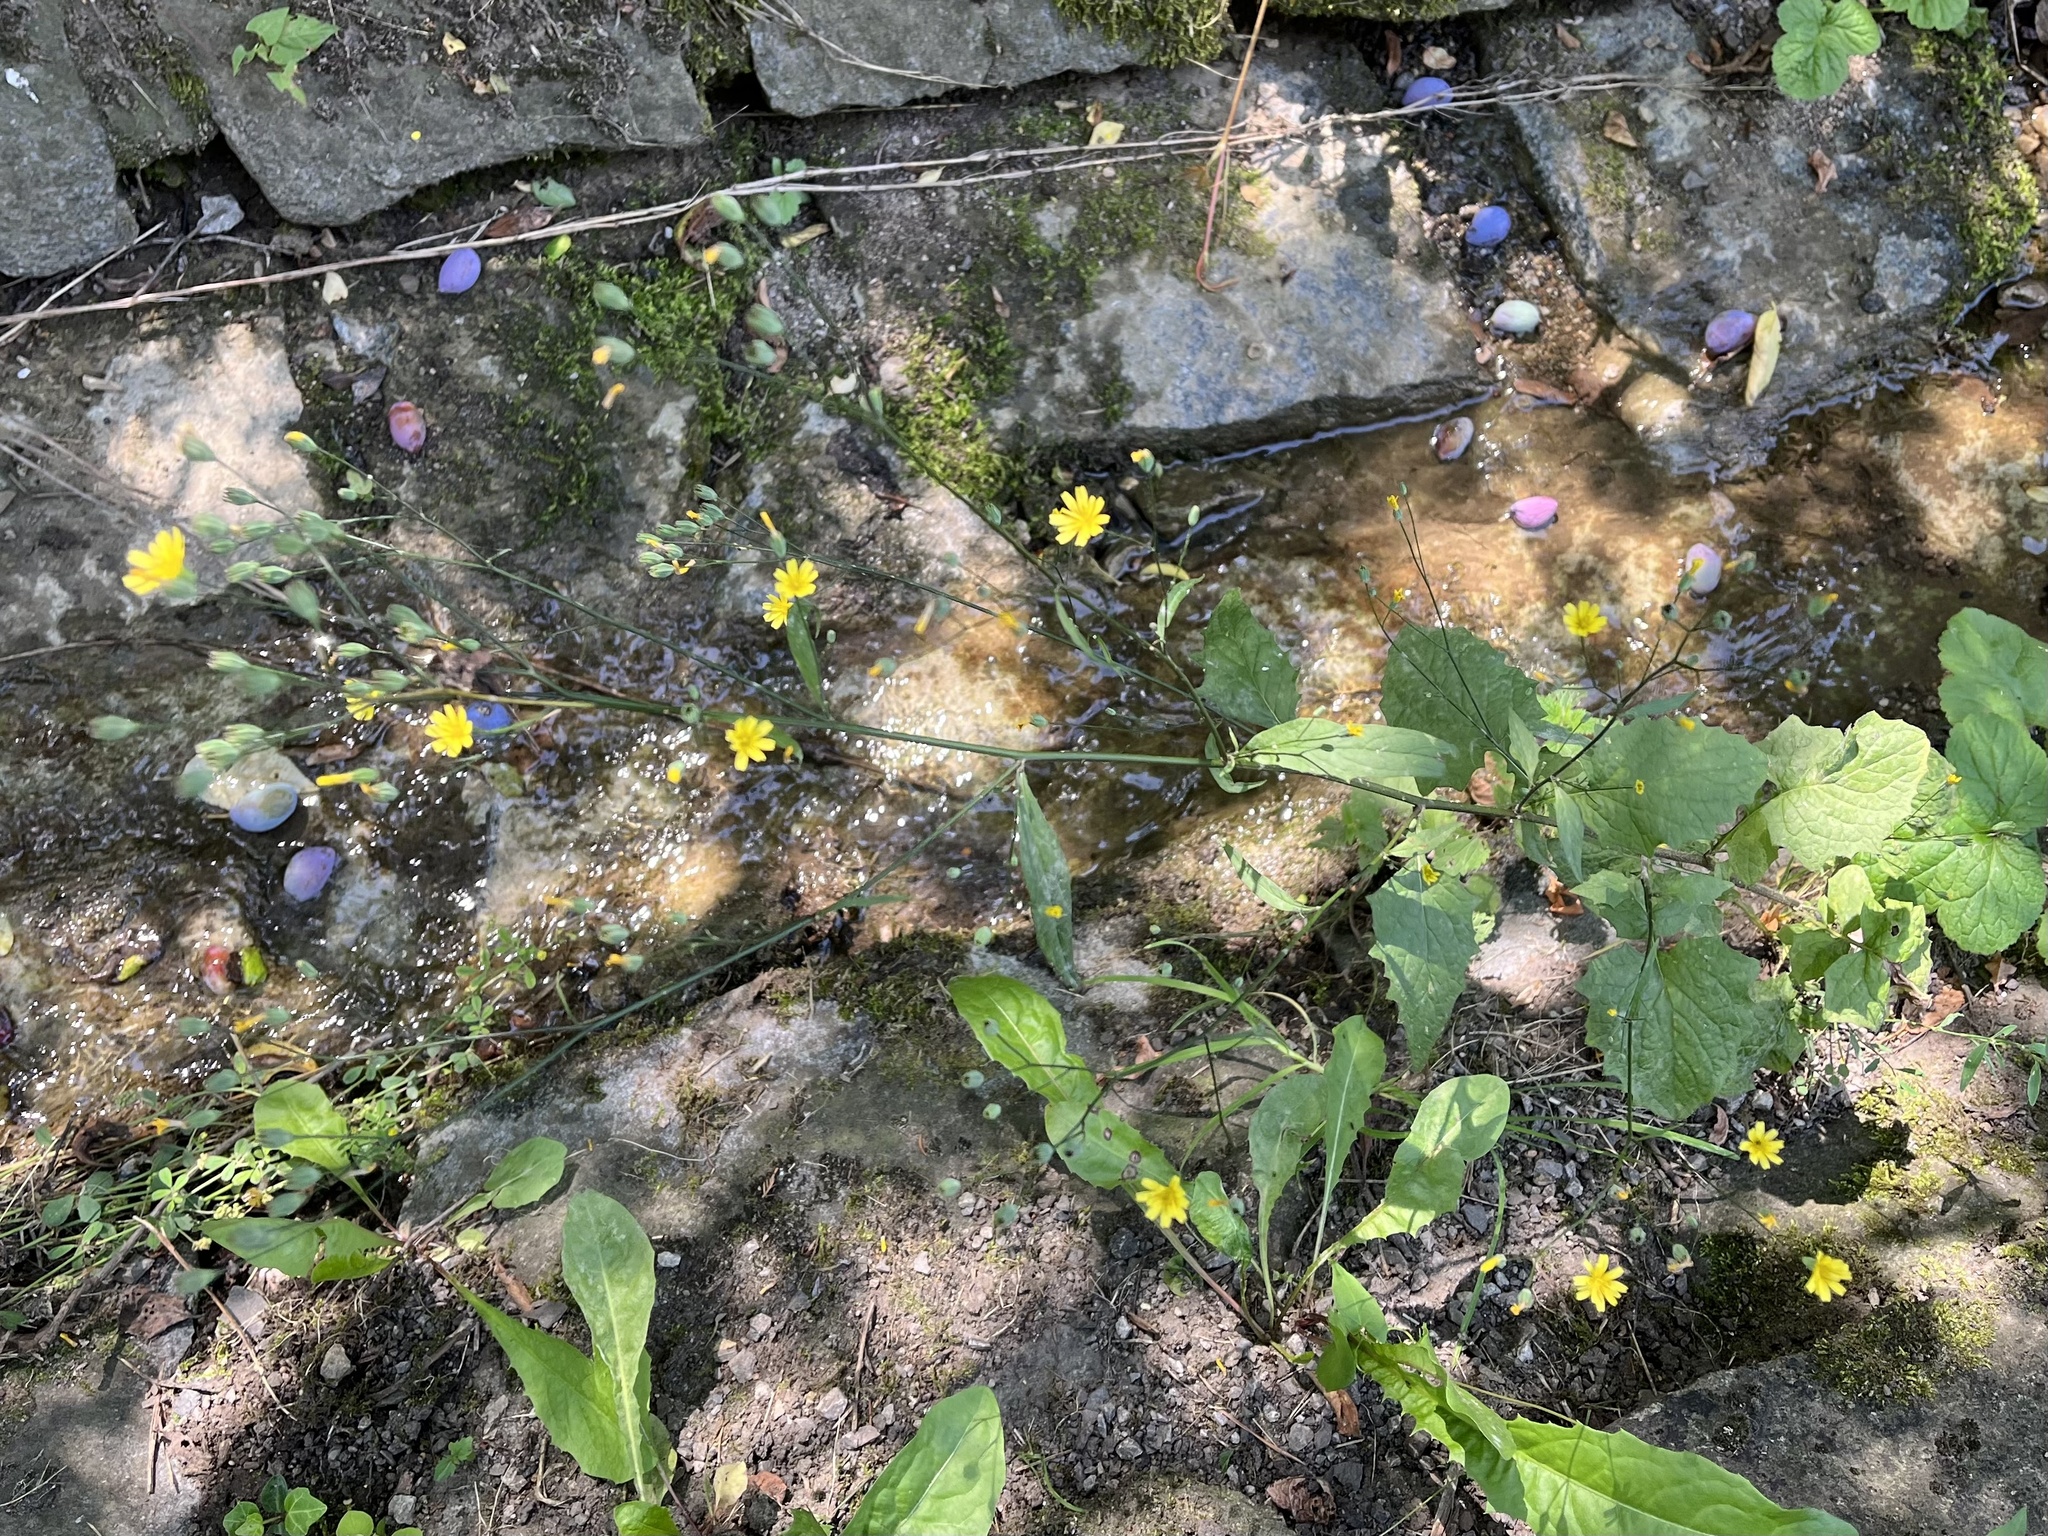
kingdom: Plantae
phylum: Tracheophyta
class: Magnoliopsida
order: Asterales
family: Asteraceae
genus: Lapsana
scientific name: Lapsana communis
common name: Nipplewort
